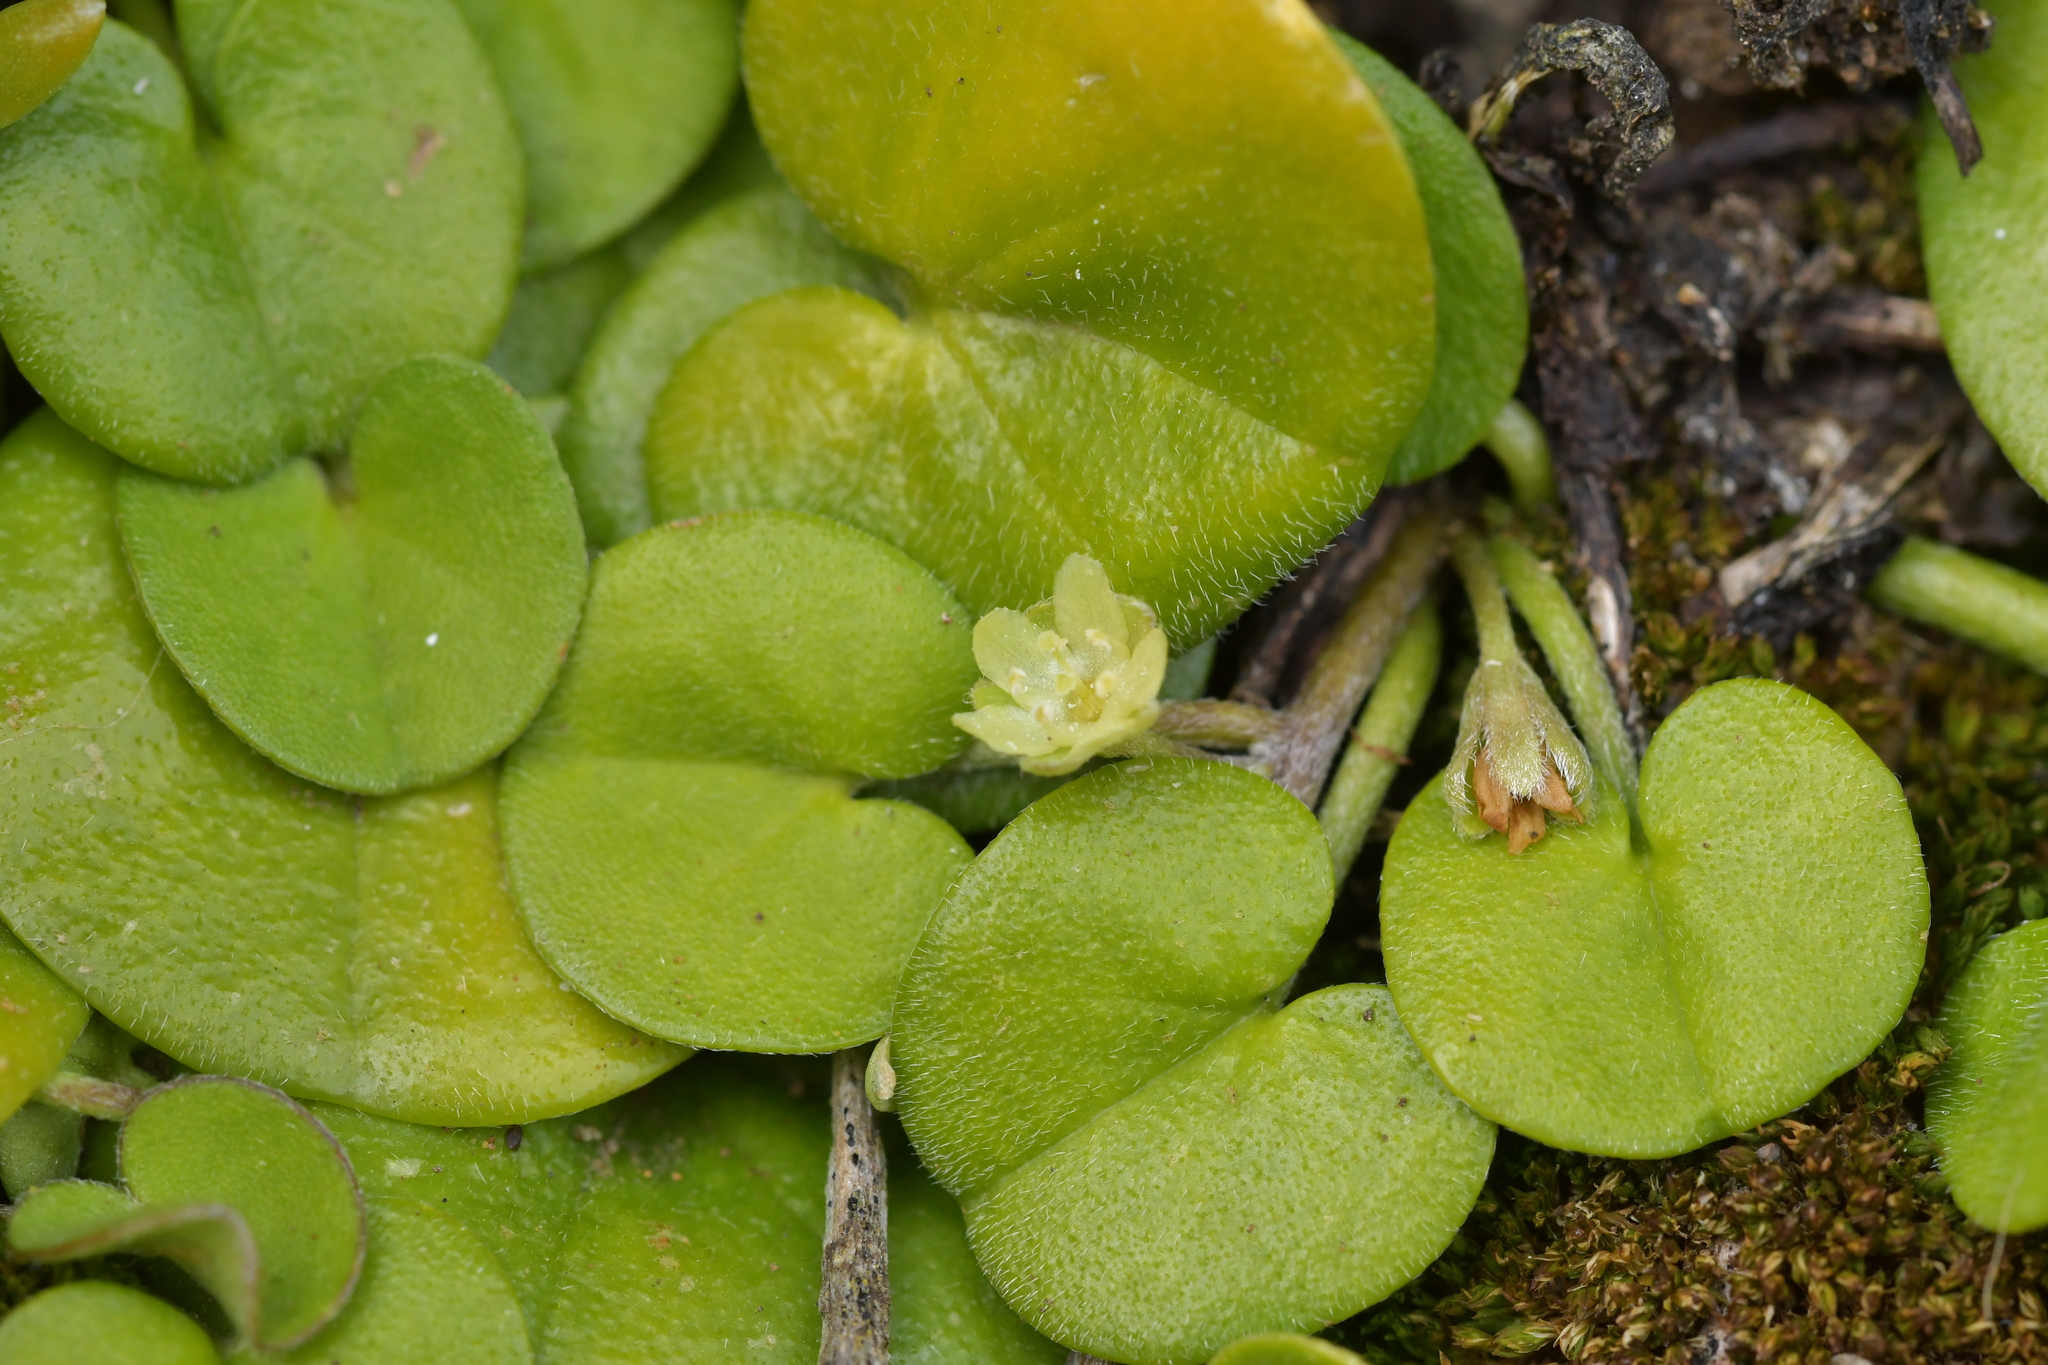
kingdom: Plantae
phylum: Tracheophyta
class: Magnoliopsida
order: Solanales
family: Convolvulaceae
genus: Dichondra
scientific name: Dichondra brevifolia
